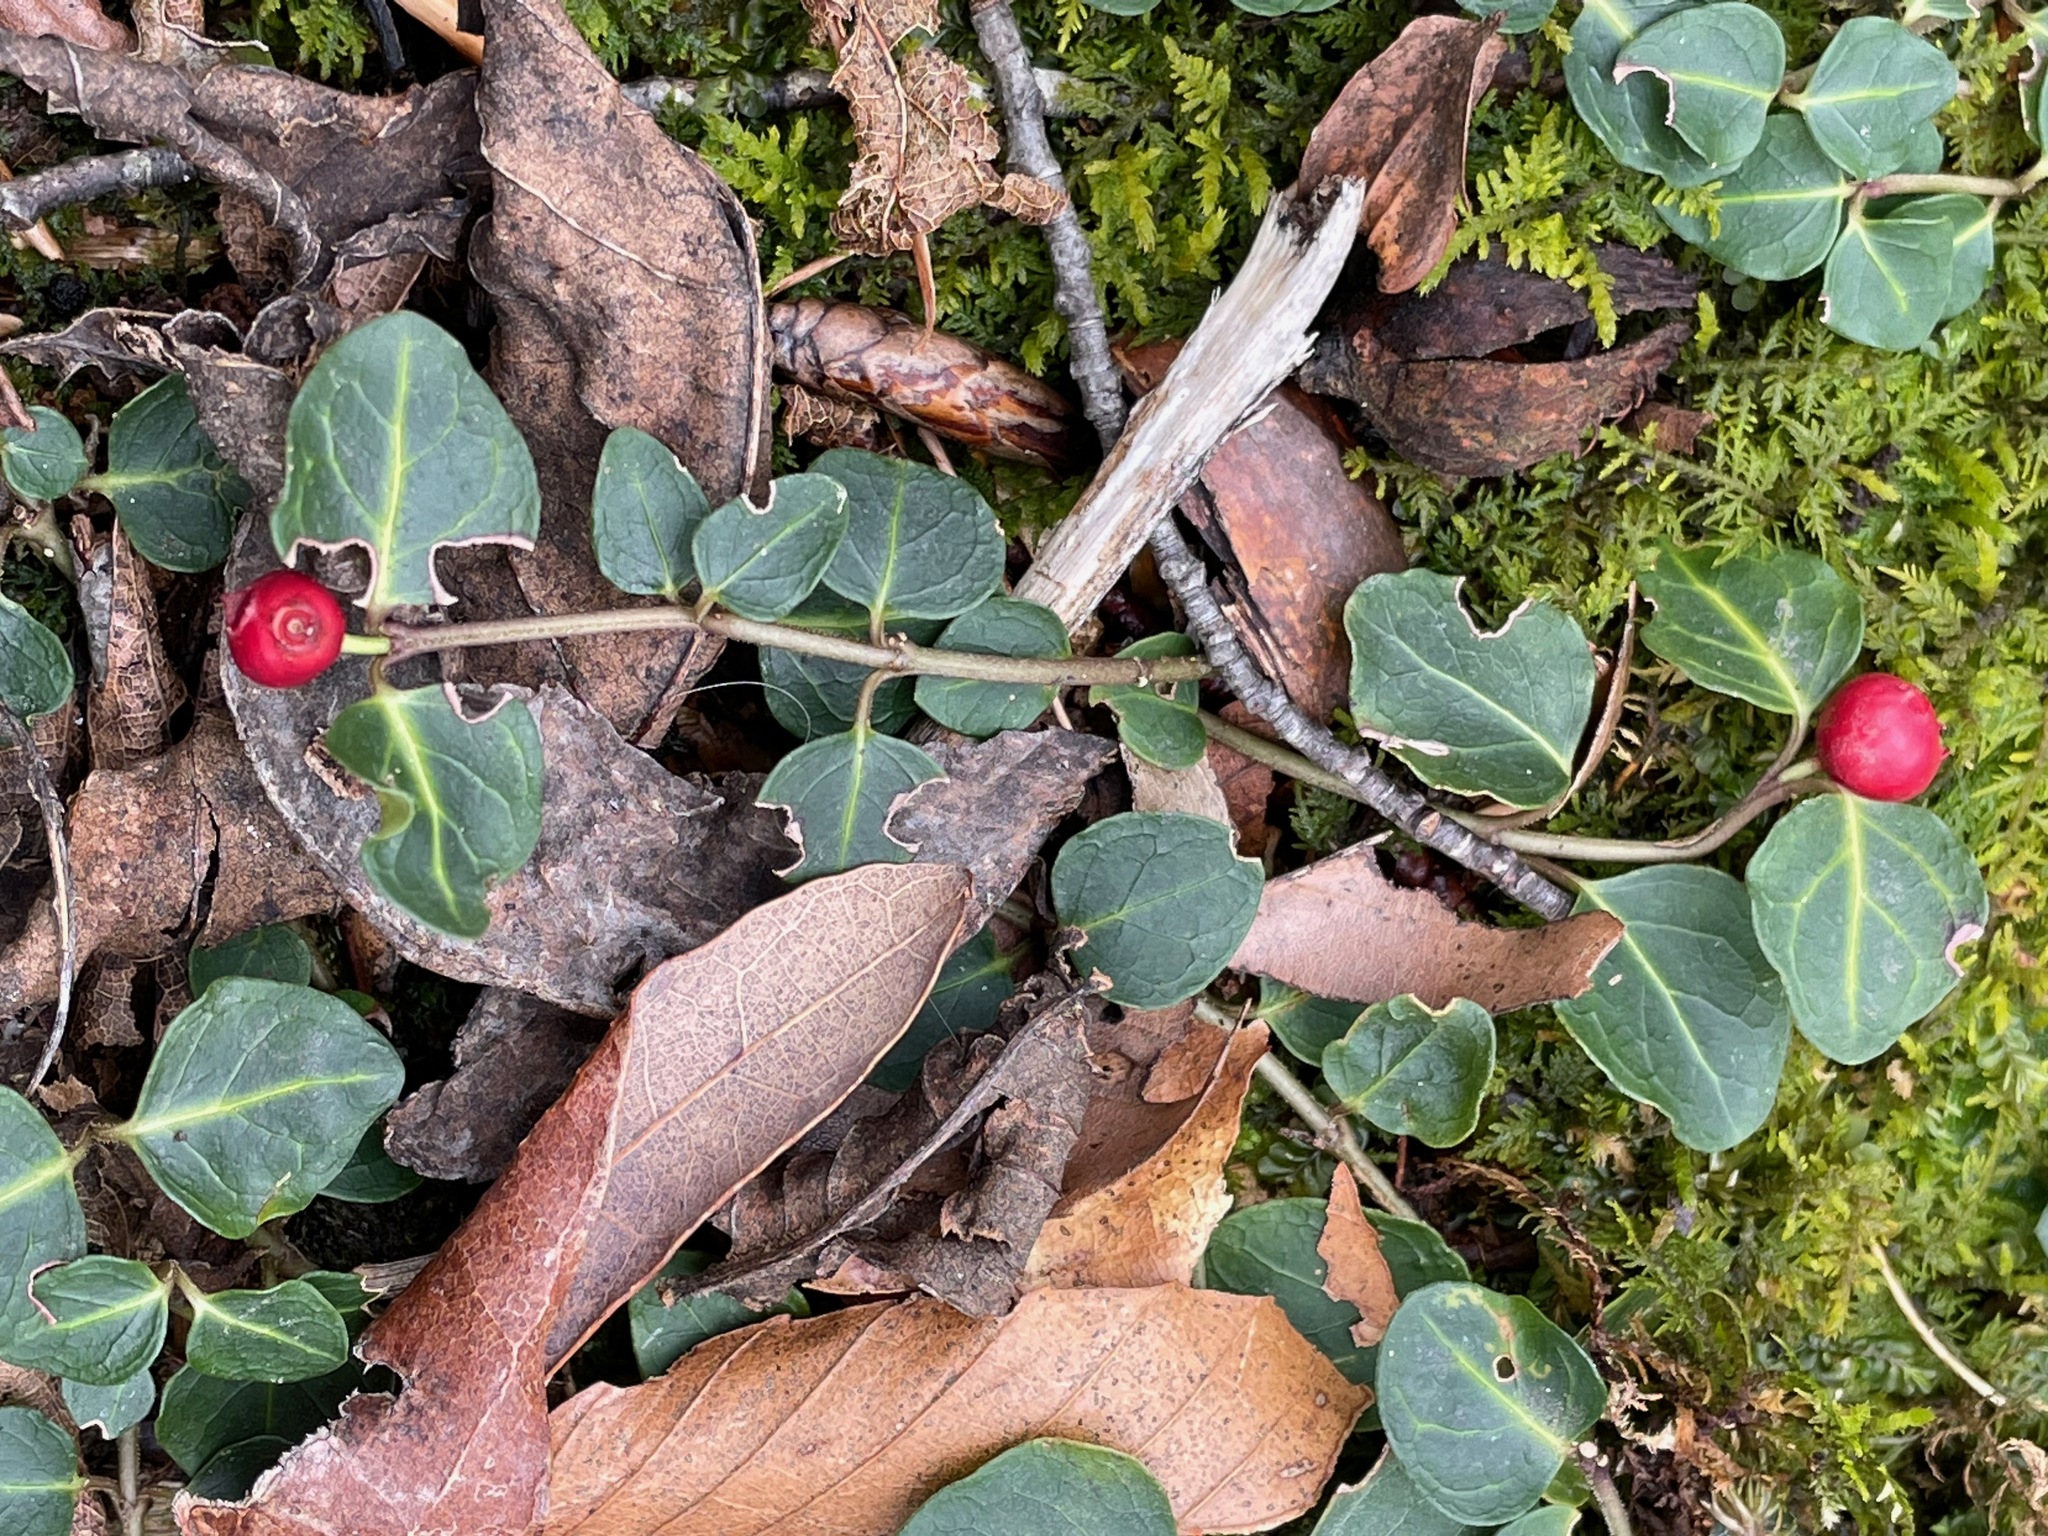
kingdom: Plantae
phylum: Tracheophyta
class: Magnoliopsida
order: Gentianales
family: Rubiaceae
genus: Mitchella
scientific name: Mitchella repens
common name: Partridge-berry
